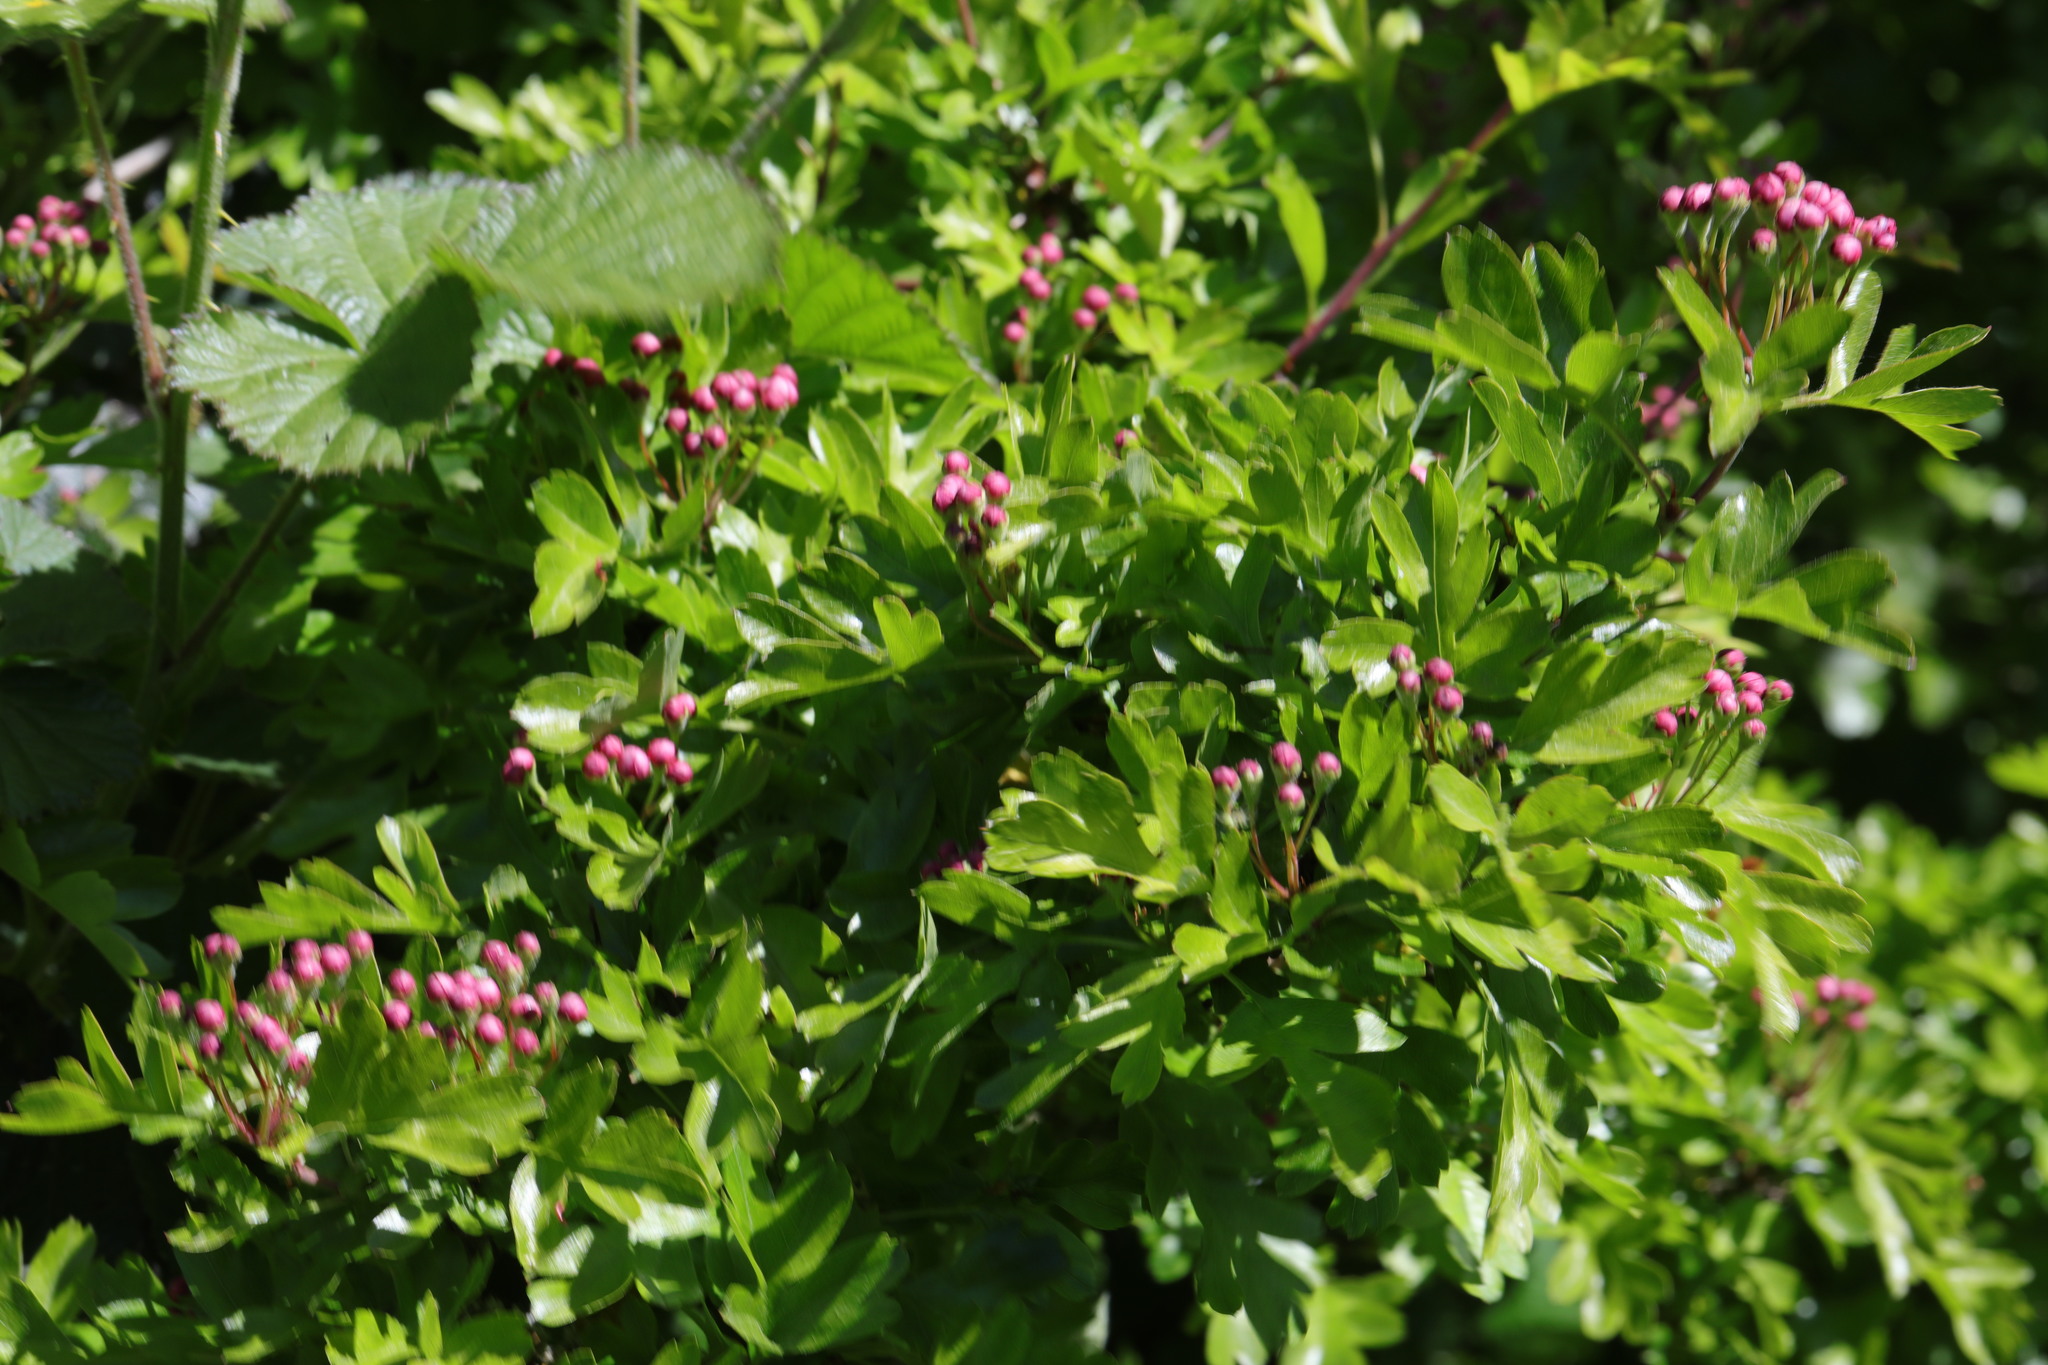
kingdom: Plantae
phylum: Tracheophyta
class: Magnoliopsida
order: Ranunculales
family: Papaveraceae
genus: Lamprocapnos
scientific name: Lamprocapnos spectabilis
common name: Asian bleeding-heart
